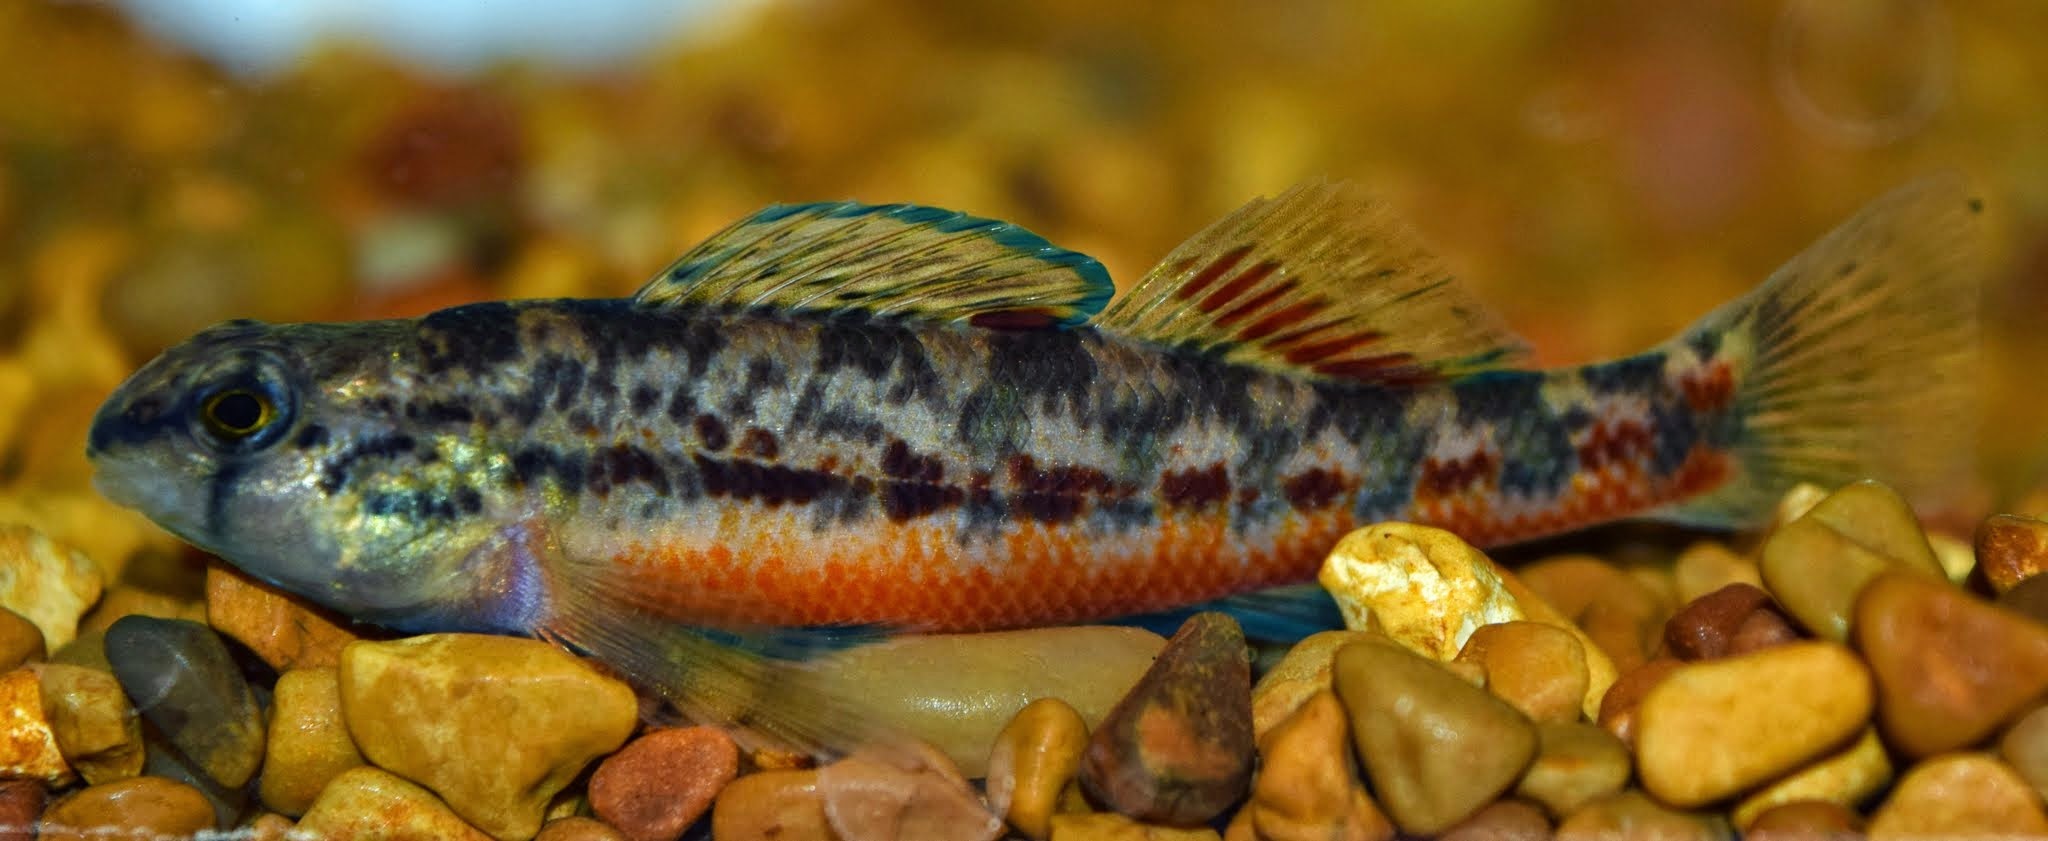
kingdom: Animalia
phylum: Chordata
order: Perciformes
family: Percidae
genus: Etheostoma
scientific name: Etheostoma raneyi
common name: Yazoo darter
